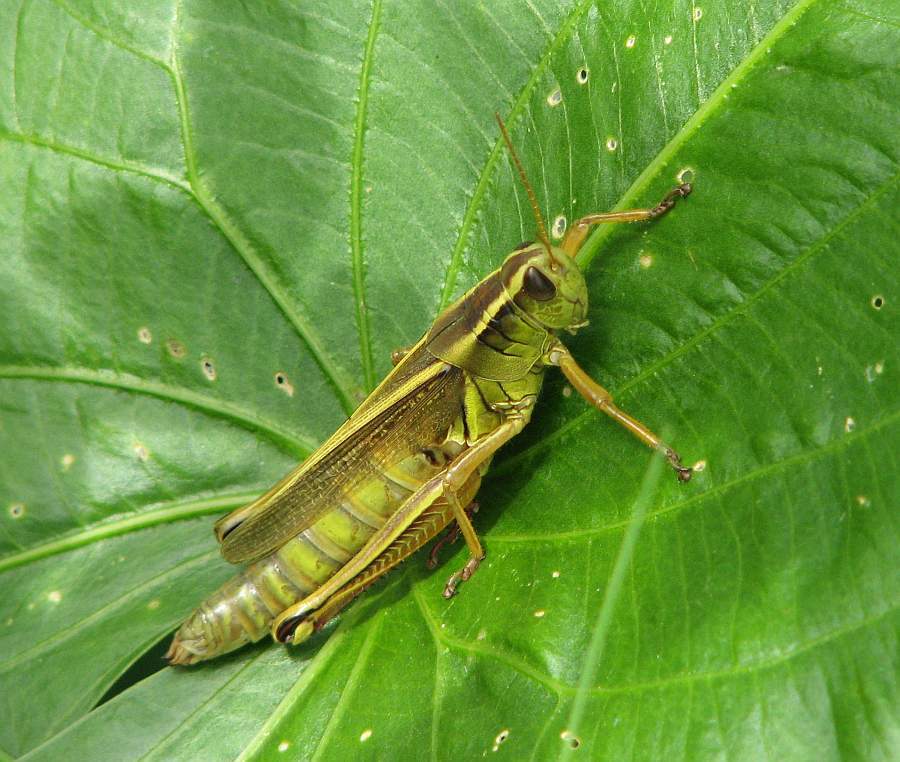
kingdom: Animalia
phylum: Arthropoda
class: Insecta
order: Orthoptera
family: Acrididae
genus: Melanoplus
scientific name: Melanoplus bivittatus
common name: Two-striped grasshopper
